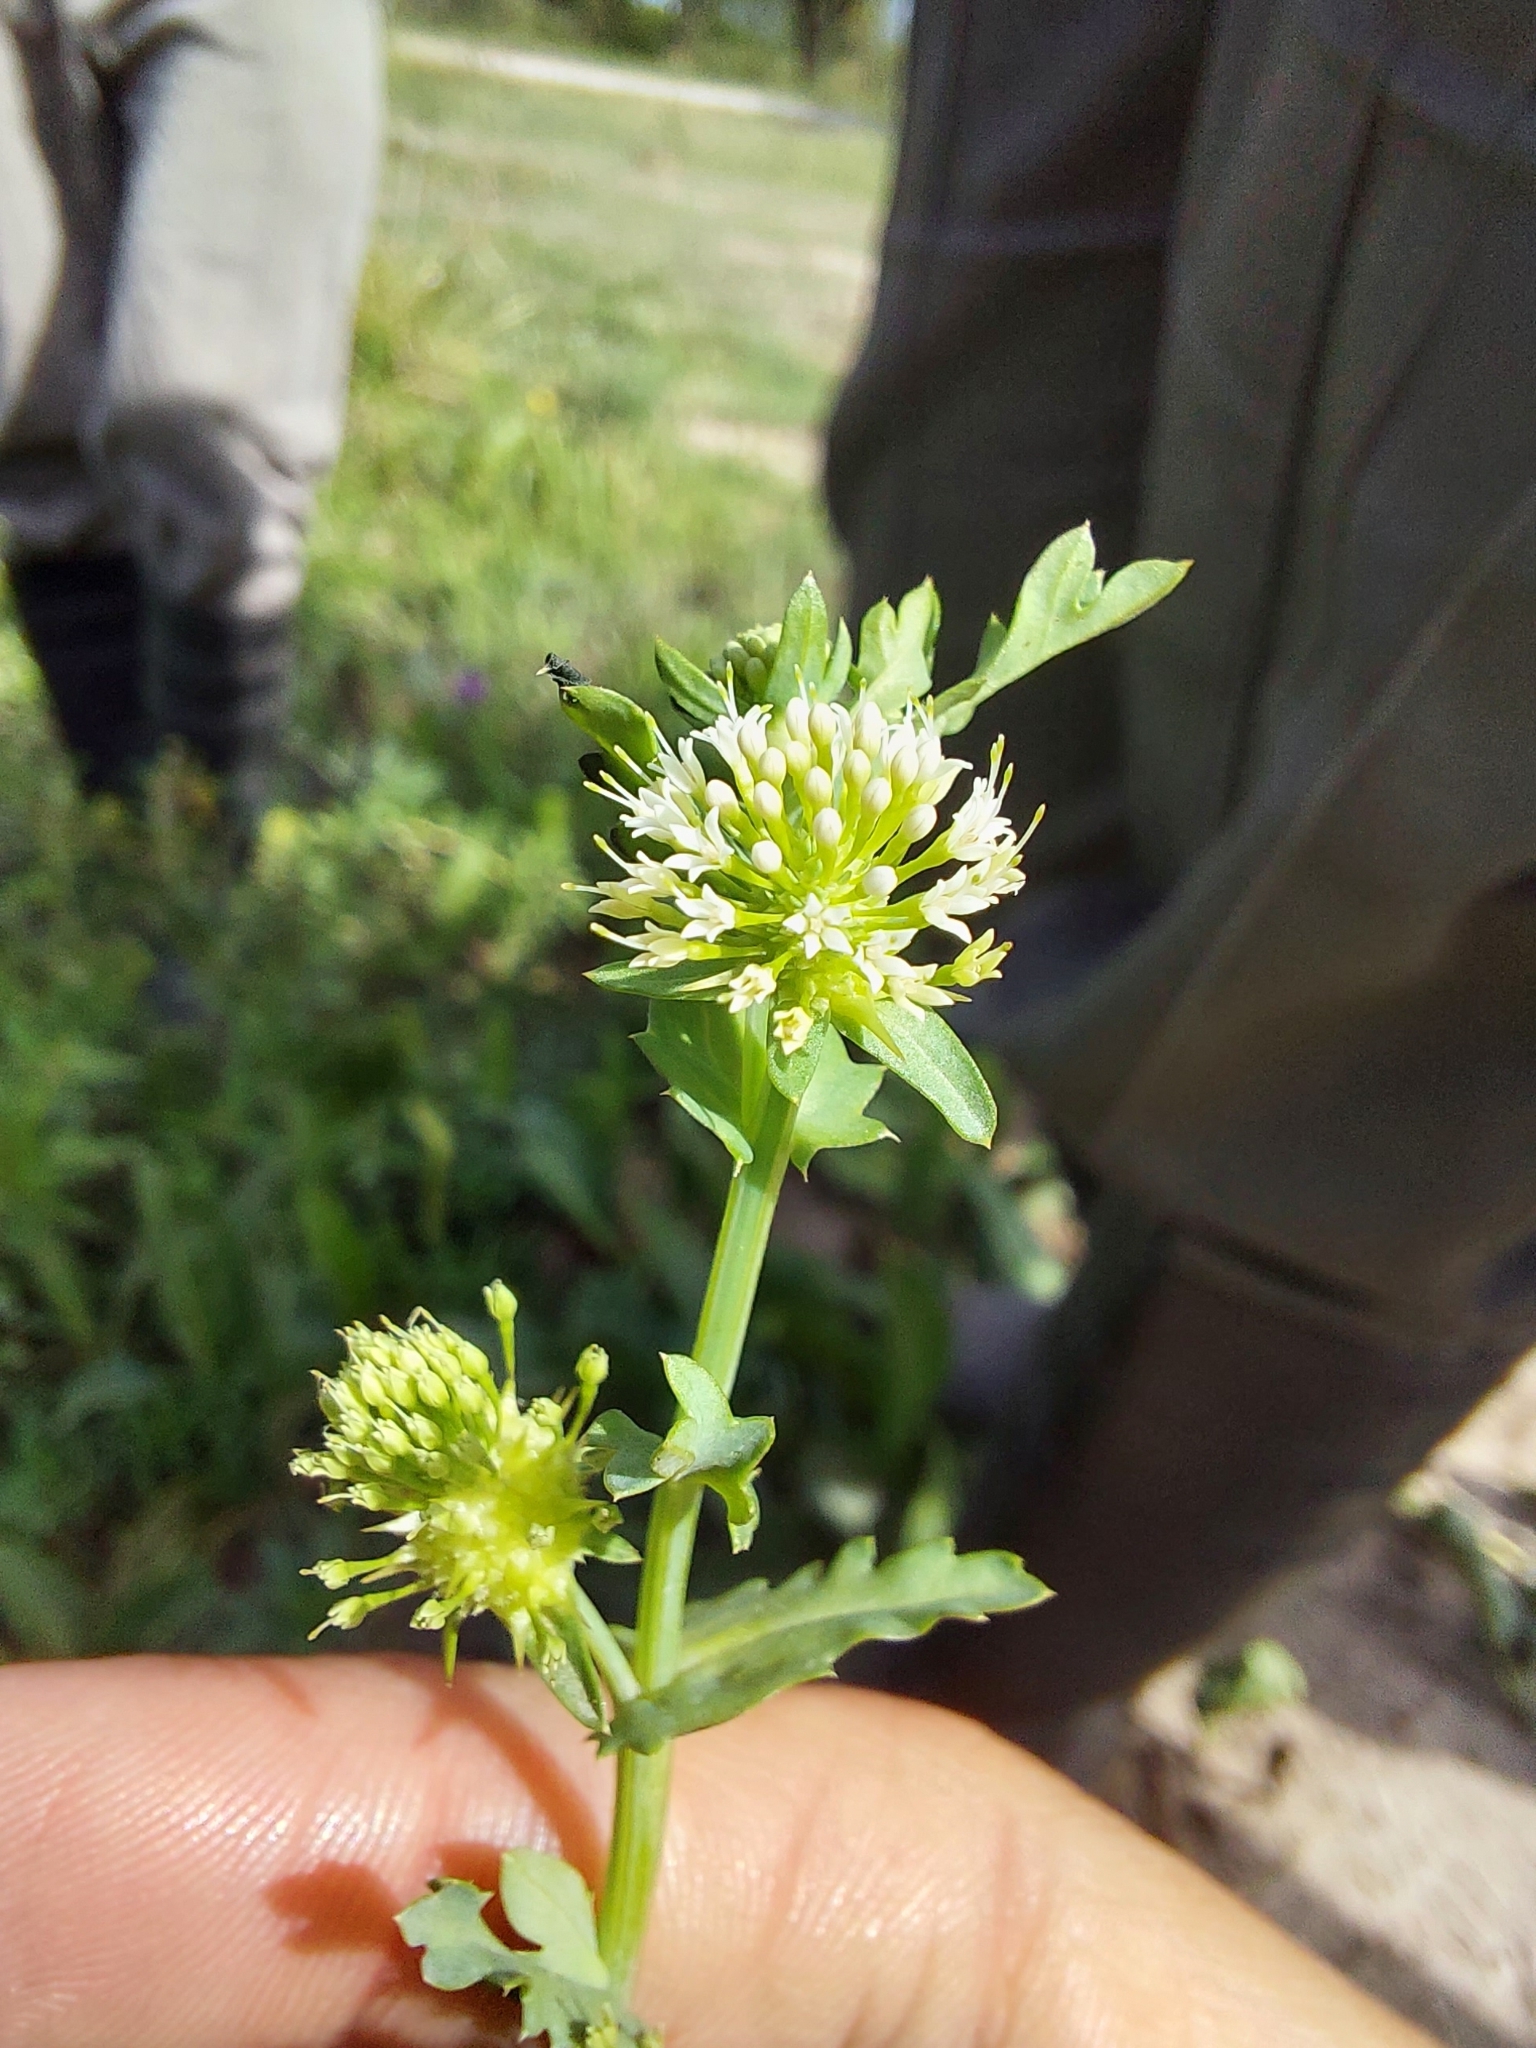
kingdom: Plantae
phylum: Tracheophyta
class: Magnoliopsida
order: Asterales
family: Calyceraceae
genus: Acicarpha
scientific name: Acicarpha tribuloides
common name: Madam gorgon
